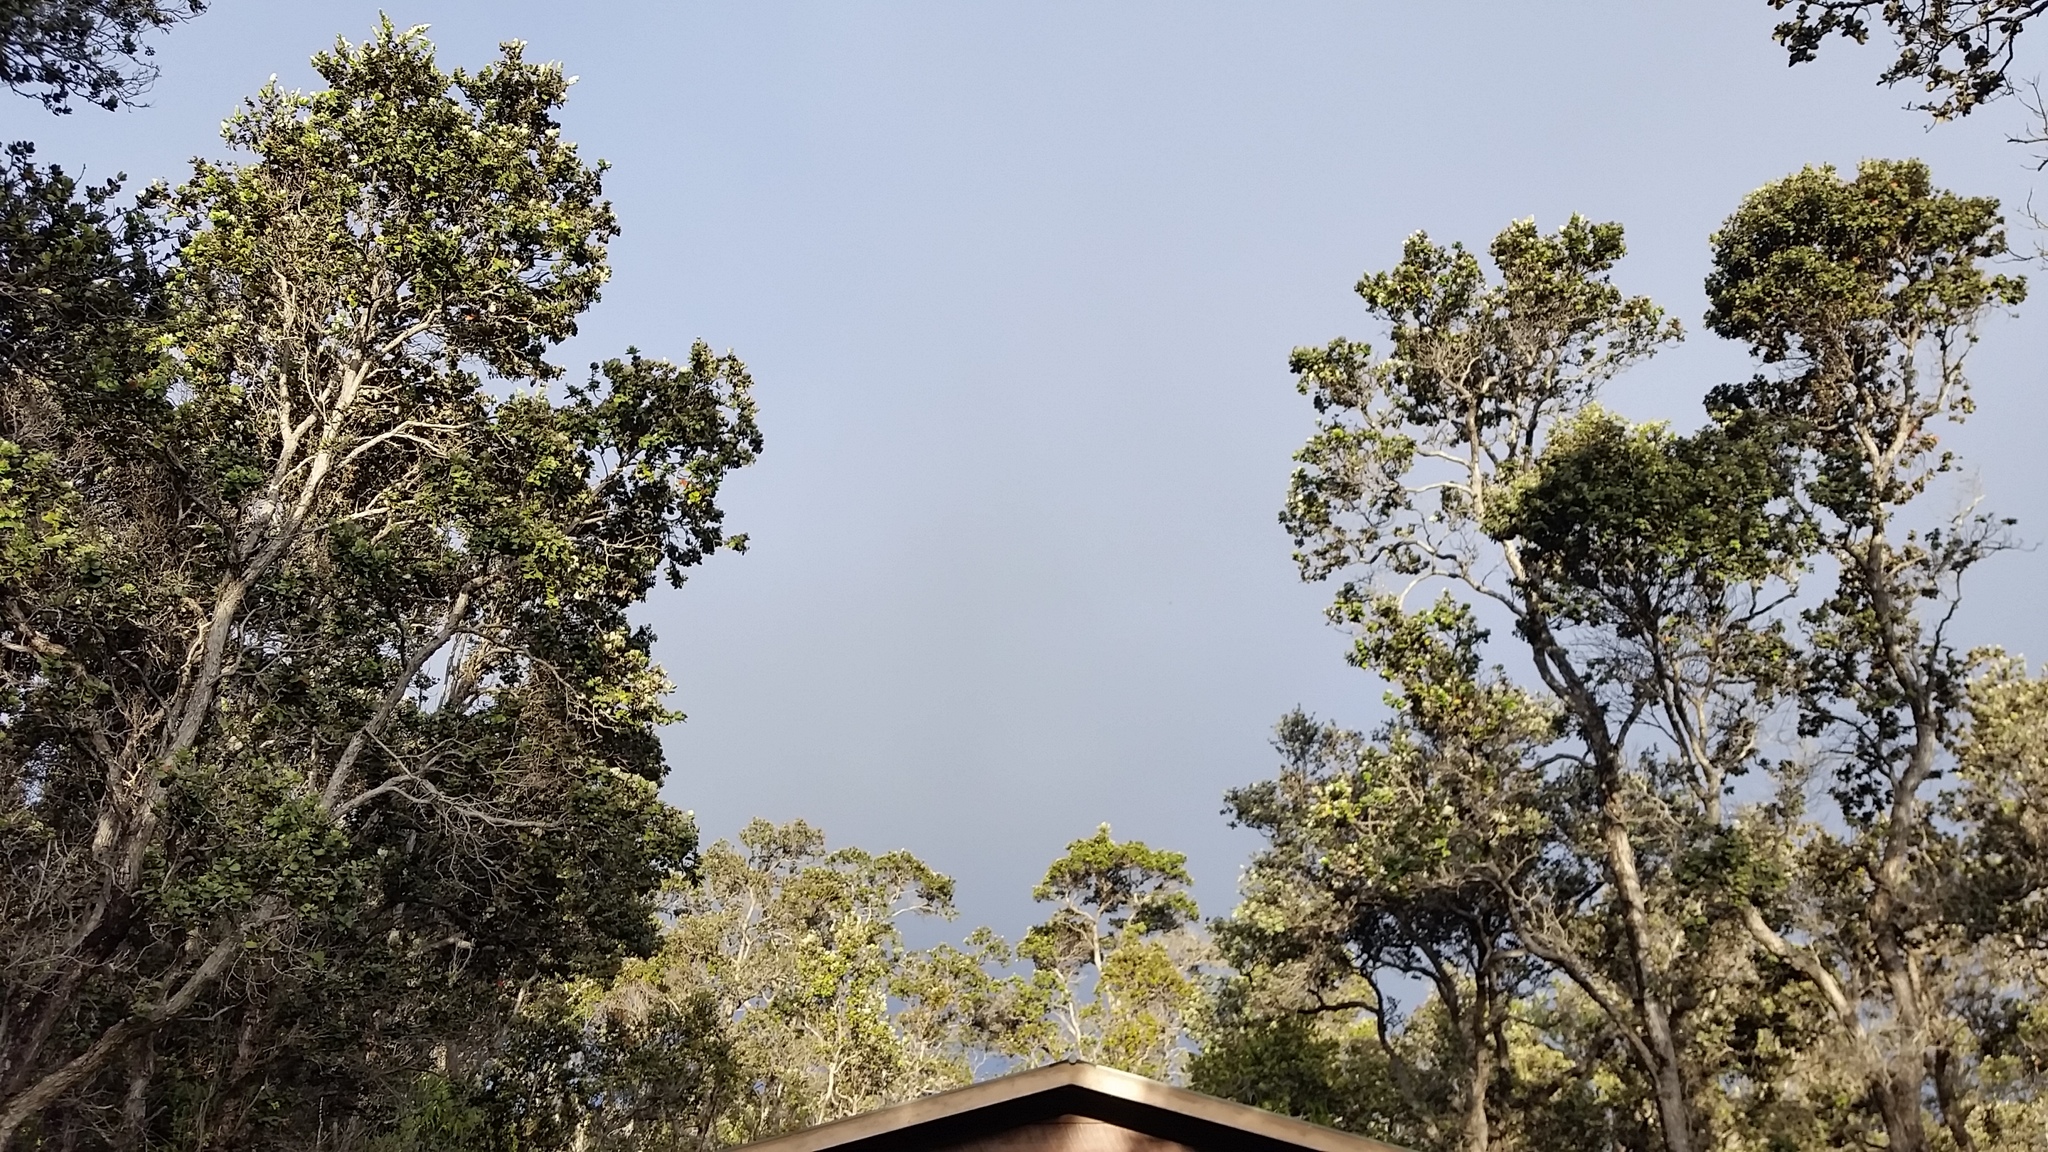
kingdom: Plantae
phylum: Tracheophyta
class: Magnoliopsida
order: Myrtales
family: Myrtaceae
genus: Metrosideros
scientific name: Metrosideros polymorpha
